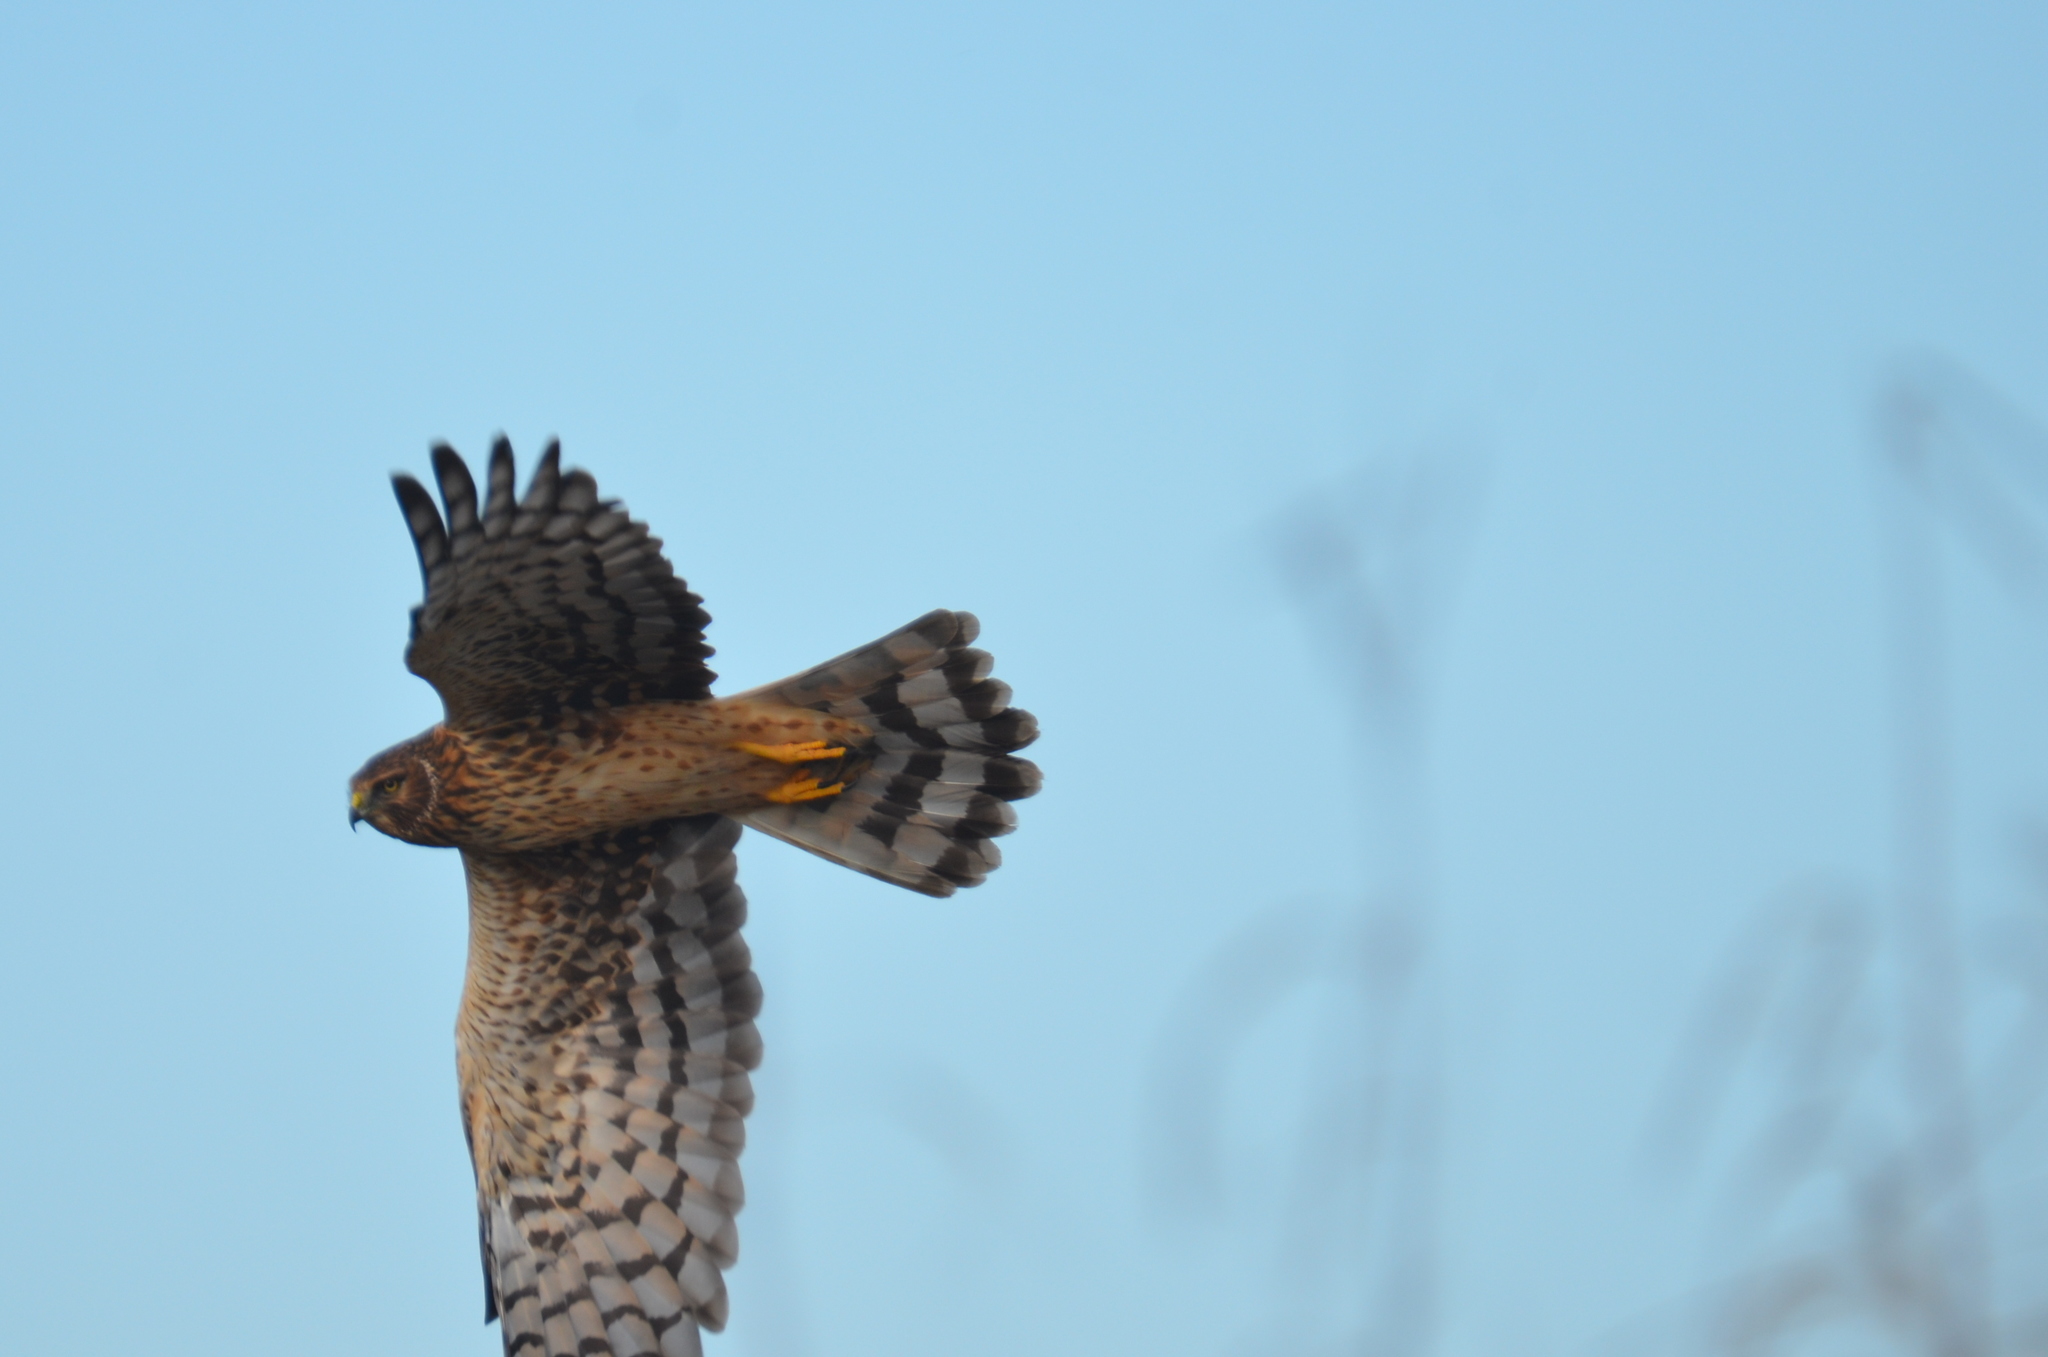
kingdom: Animalia
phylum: Chordata
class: Aves
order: Accipitriformes
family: Accipitridae
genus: Circus
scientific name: Circus cyaneus
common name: Hen harrier
